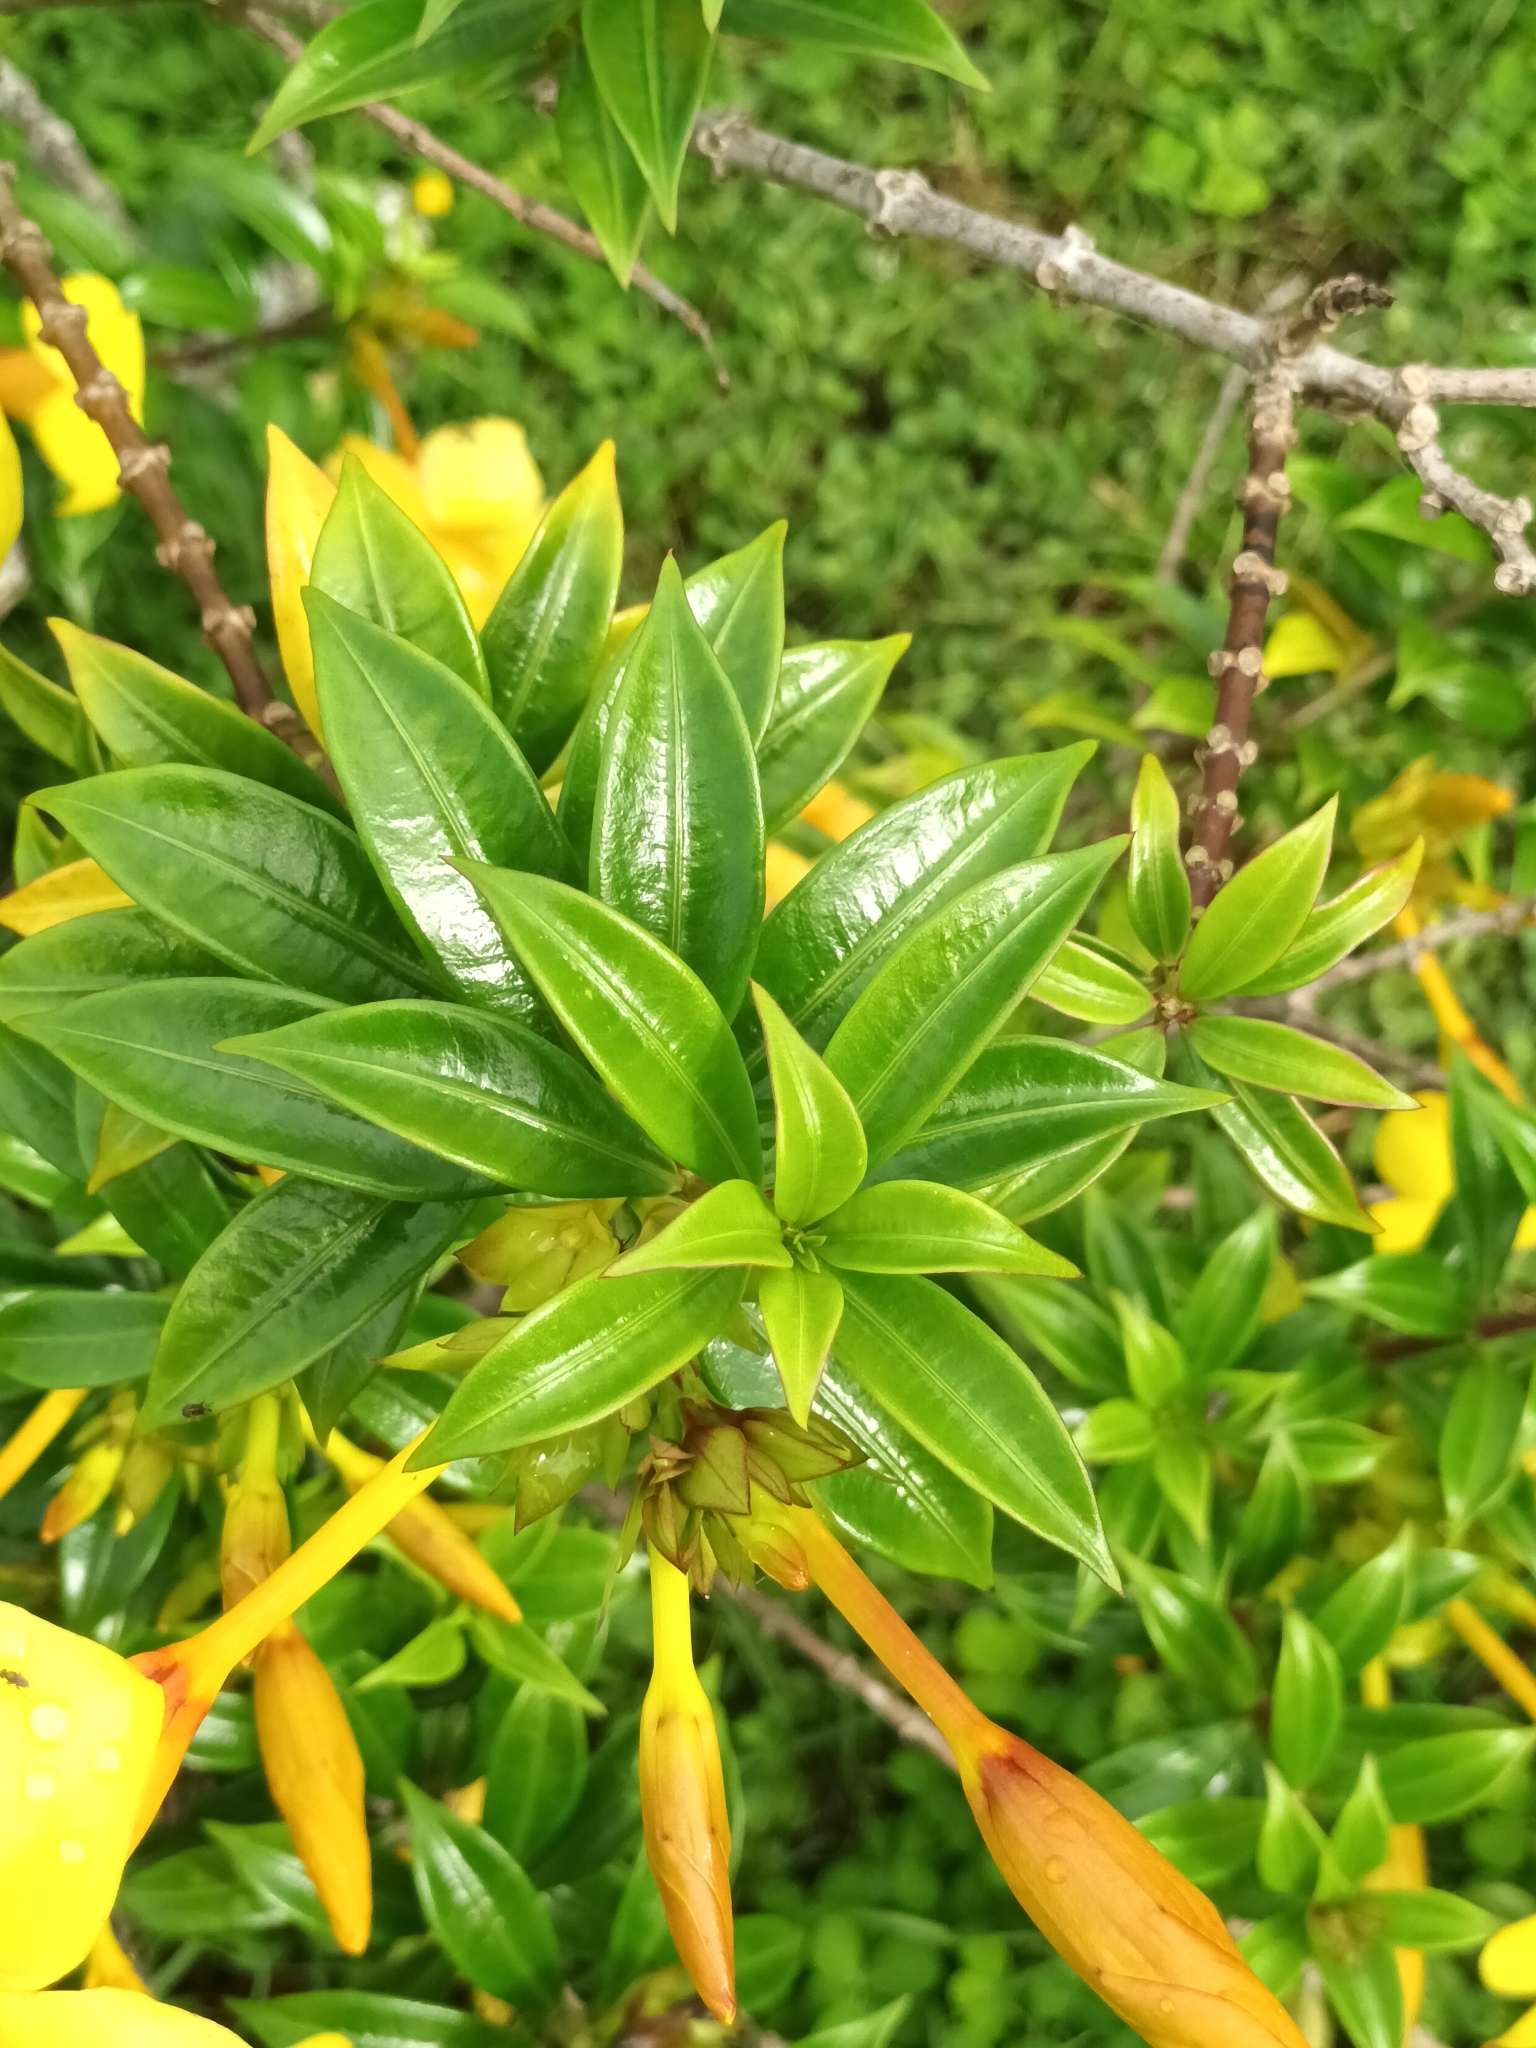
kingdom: Plantae
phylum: Tracheophyta
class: Magnoliopsida
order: Gentianales
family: Apocynaceae
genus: Allamanda
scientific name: Allamanda cathartica
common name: Golden trumpet
